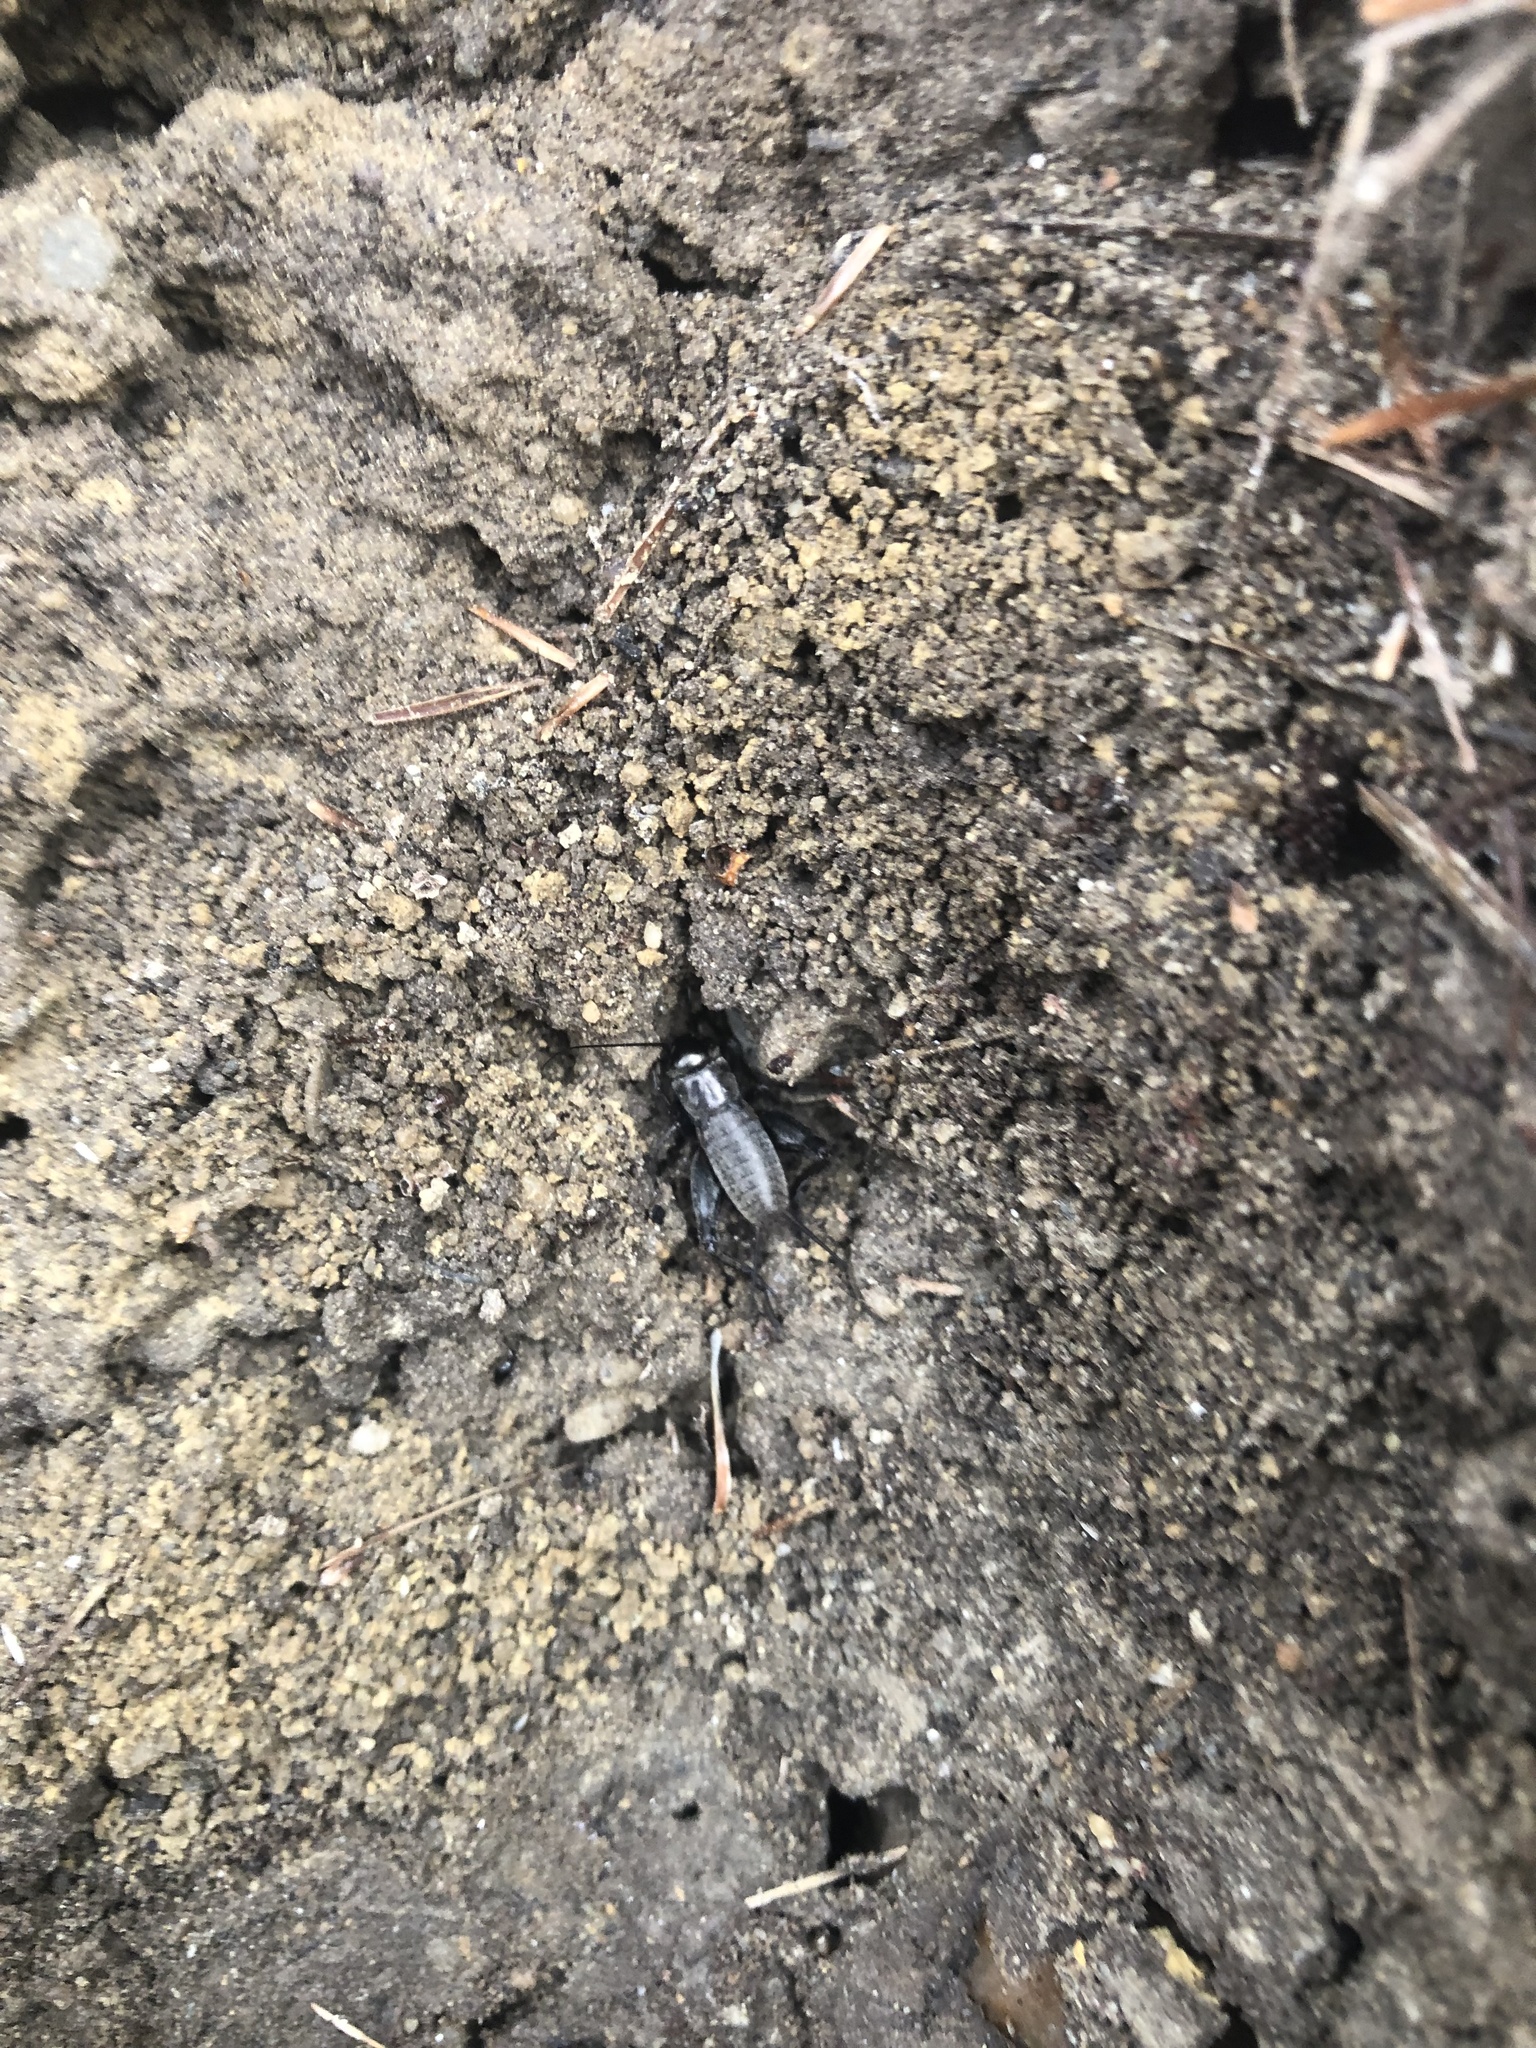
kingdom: Animalia
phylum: Arthropoda
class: Insecta
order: Orthoptera
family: Gryllidae
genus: Gryllus
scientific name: Gryllus veletis
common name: Spring field cricket
